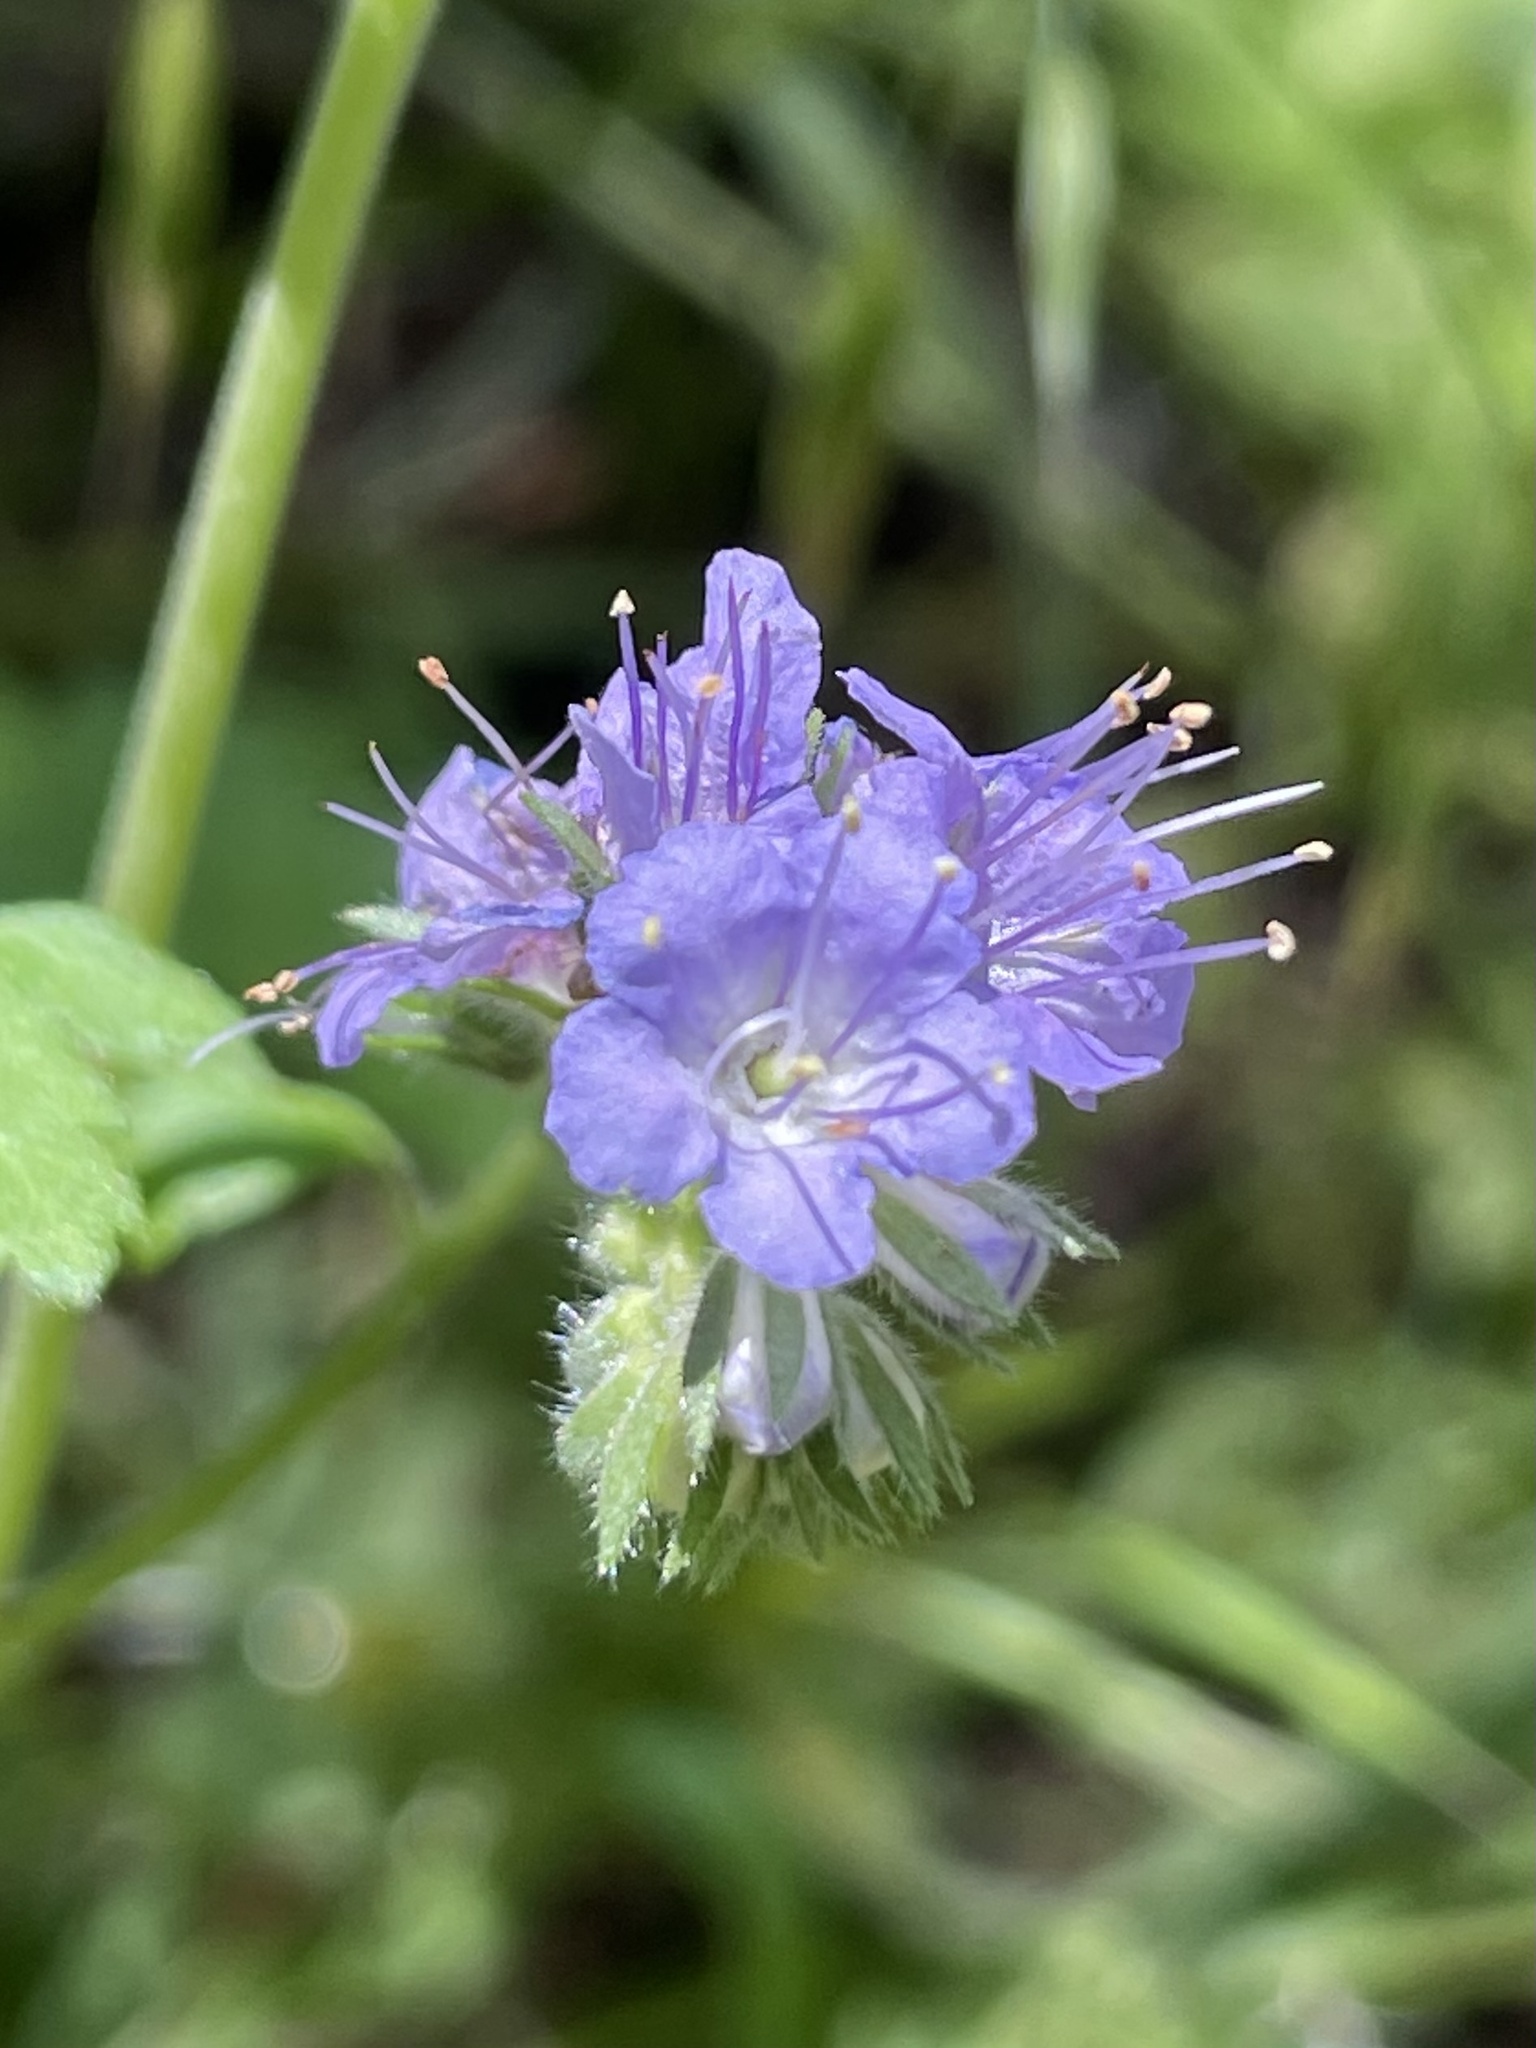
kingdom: Plantae
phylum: Tracheophyta
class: Magnoliopsida
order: Boraginales
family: Hydrophyllaceae
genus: Phacelia
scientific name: Phacelia congesta
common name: Blue curls
